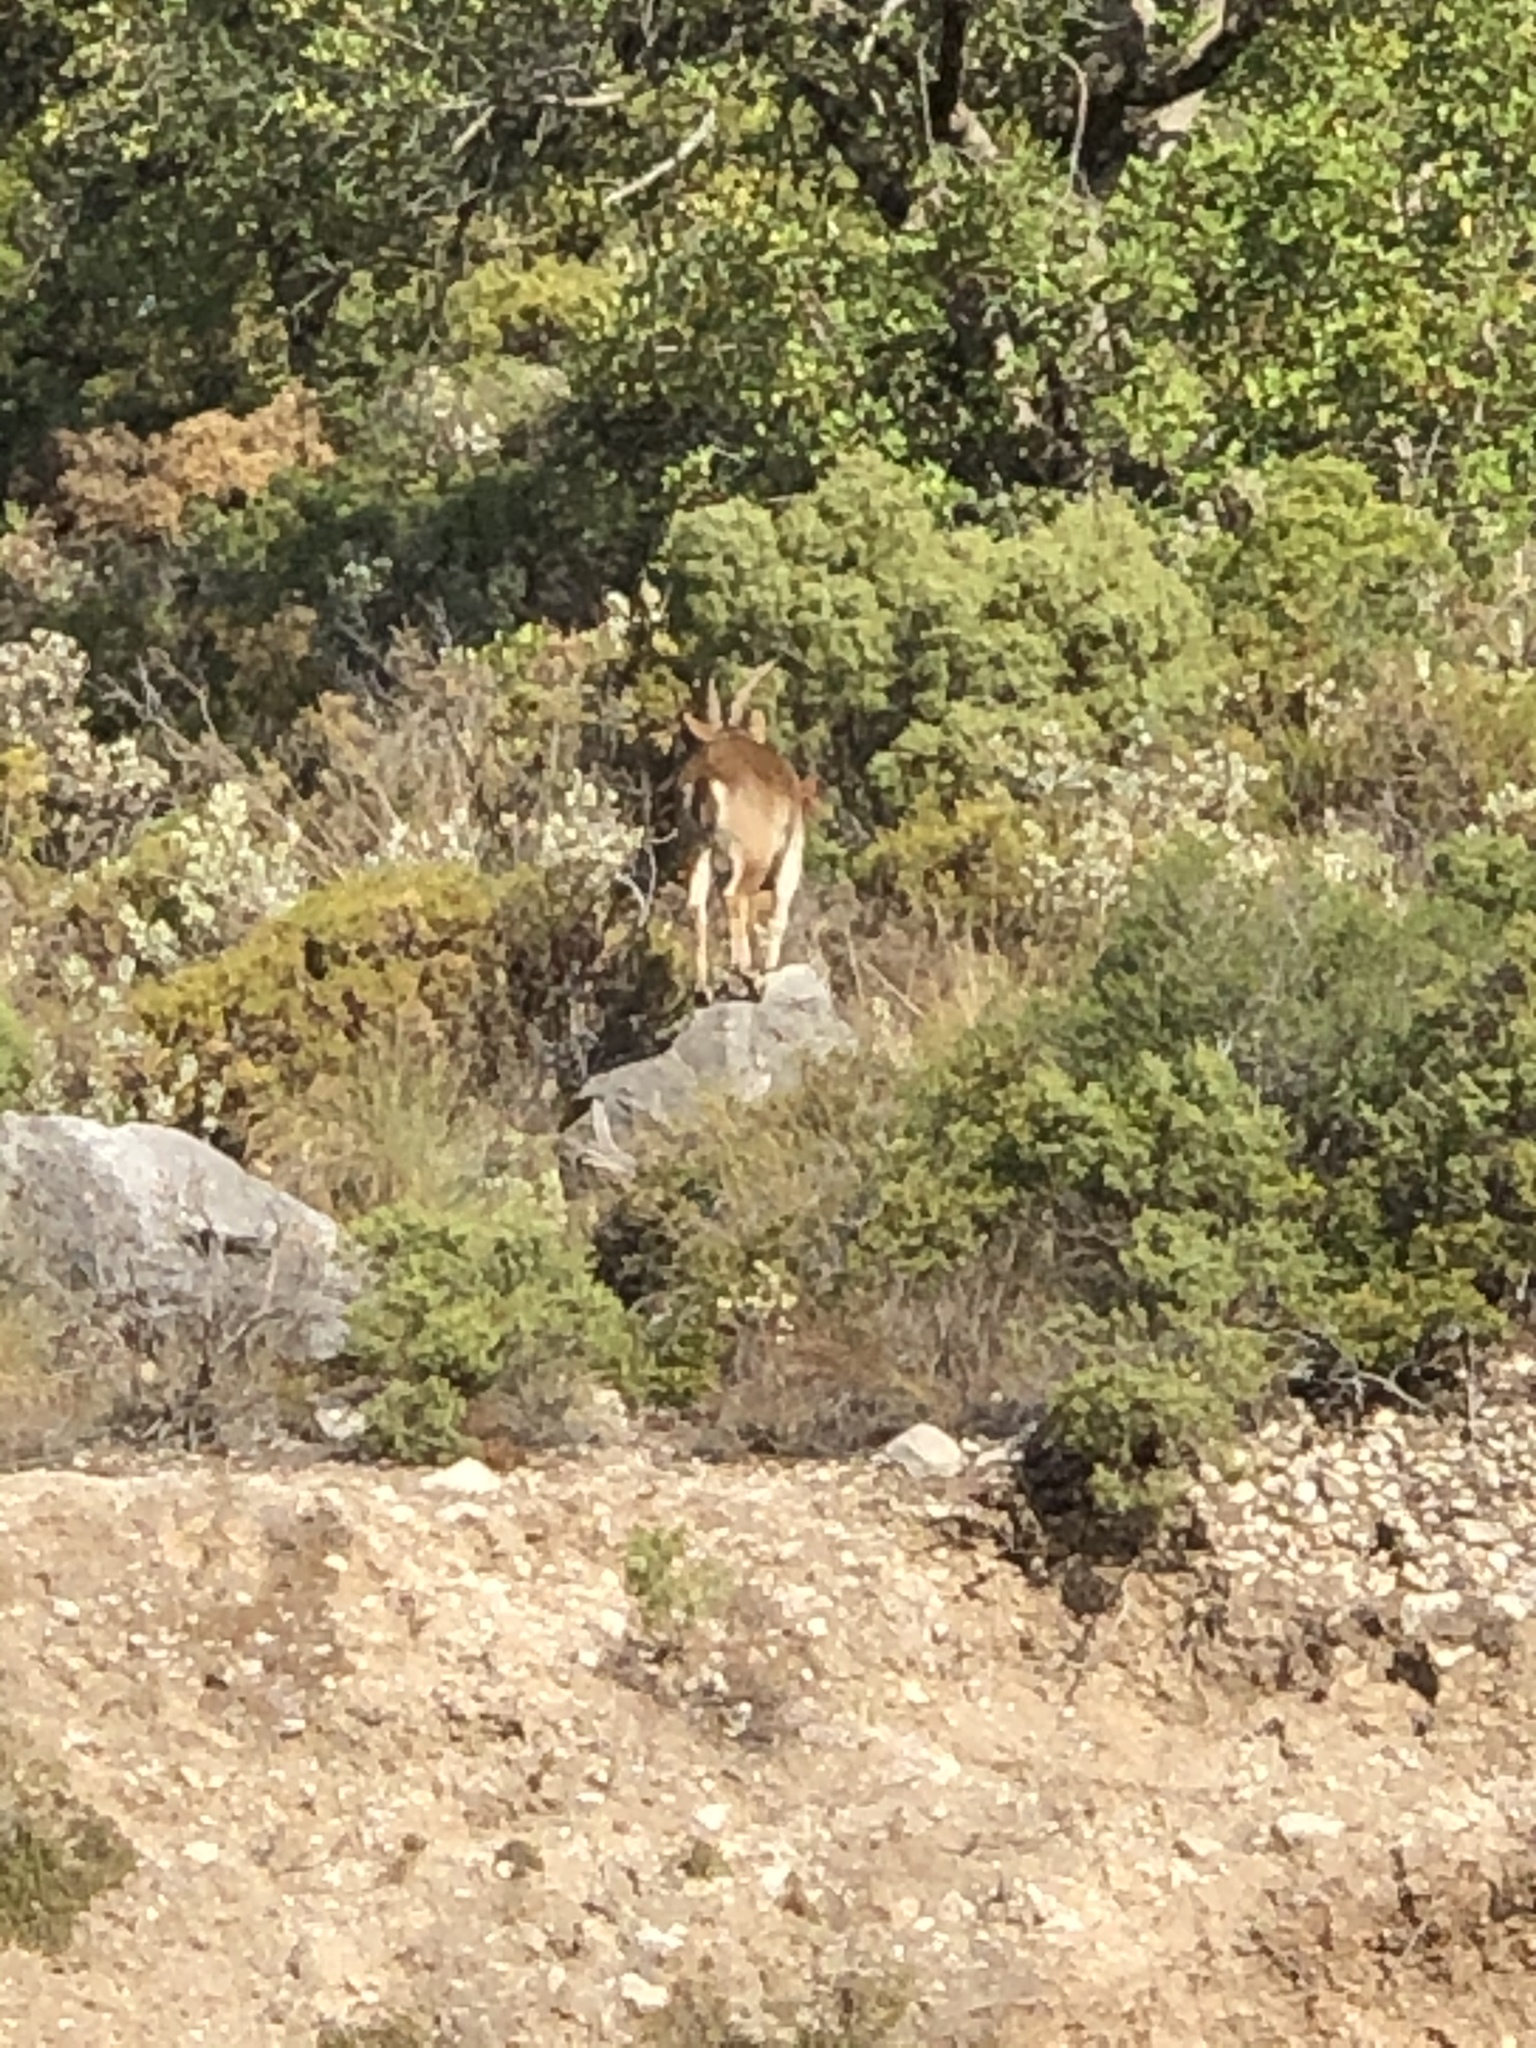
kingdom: Animalia
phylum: Chordata
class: Mammalia
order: Artiodactyla
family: Bovidae
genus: Capra
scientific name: Capra pyrenaica
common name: Spanish ibex
